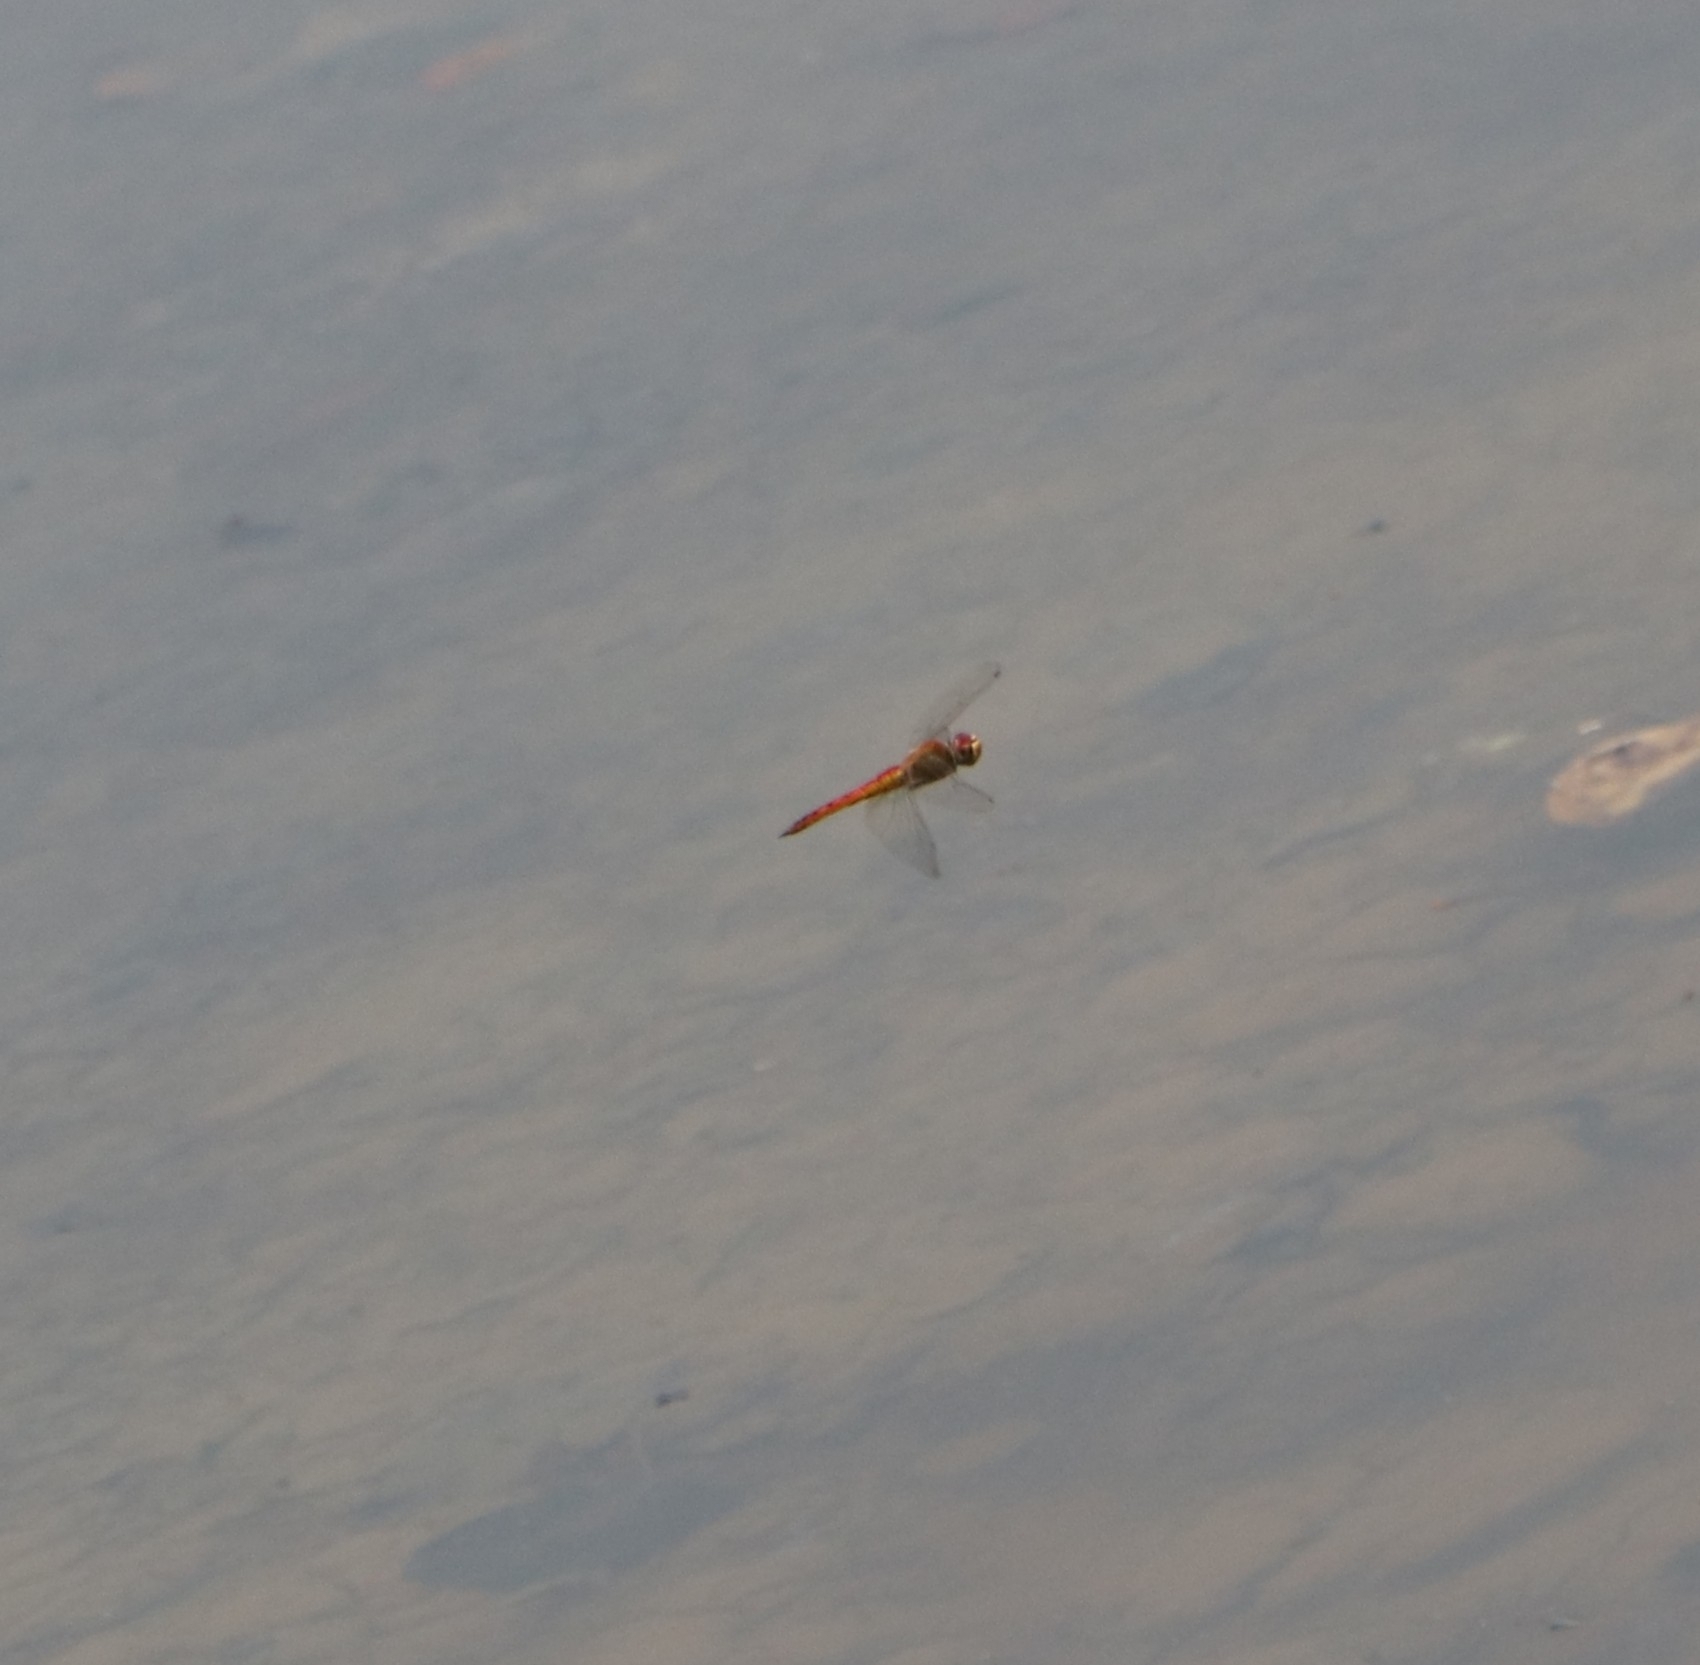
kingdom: Animalia
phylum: Arthropoda
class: Insecta
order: Odonata
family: Libellulidae
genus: Pantala
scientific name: Pantala flavescens
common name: Wandering glider
